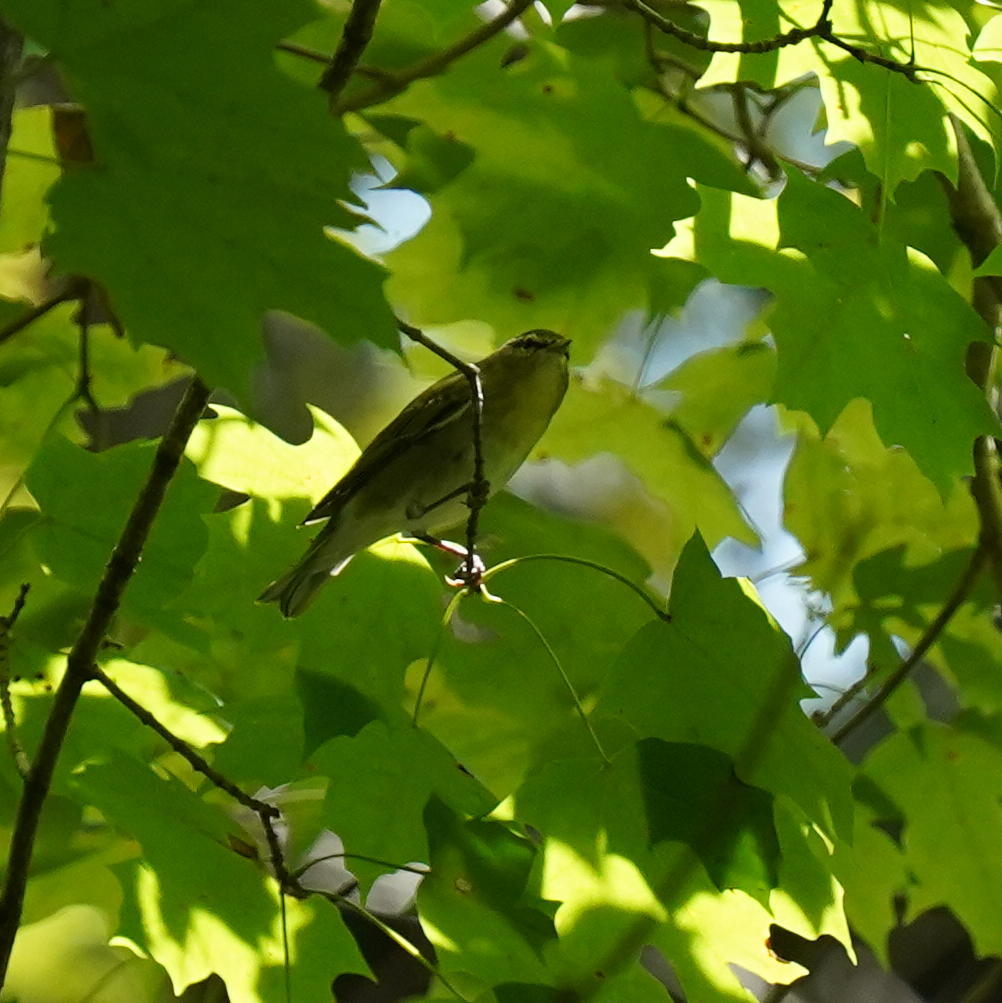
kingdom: Animalia
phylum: Chordata
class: Aves
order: Passeriformes
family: Parulidae
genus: Leiothlypis
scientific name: Leiothlypis peregrina
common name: Tennessee warbler
